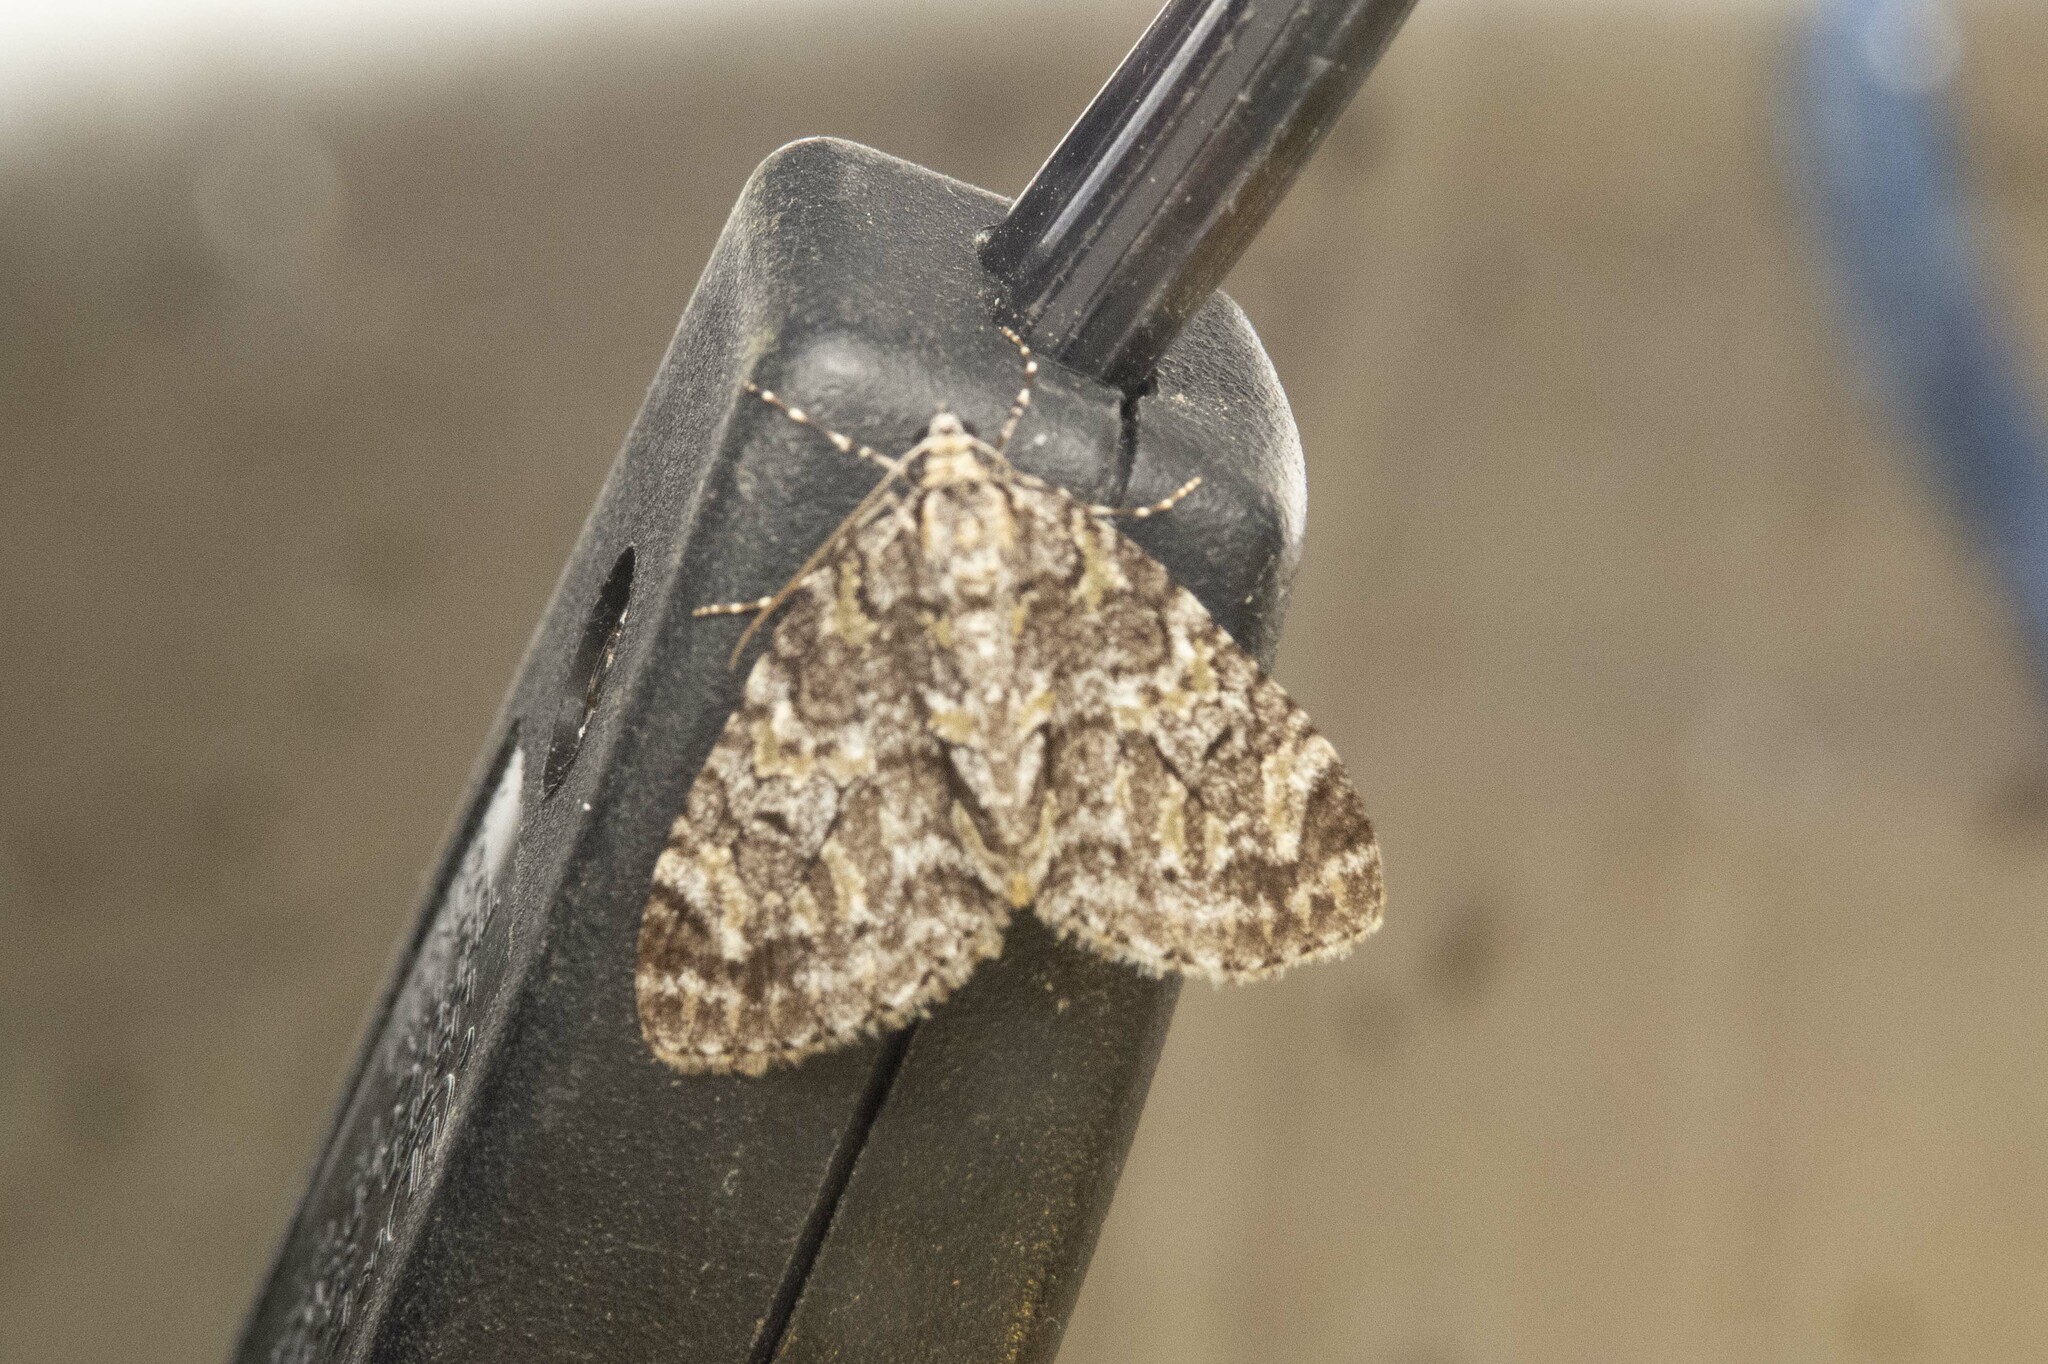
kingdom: Animalia
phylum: Arthropoda
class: Insecta
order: Lepidoptera
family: Geometridae
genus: Cladara
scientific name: Cladara limitaria
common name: Mottled gray carpet
